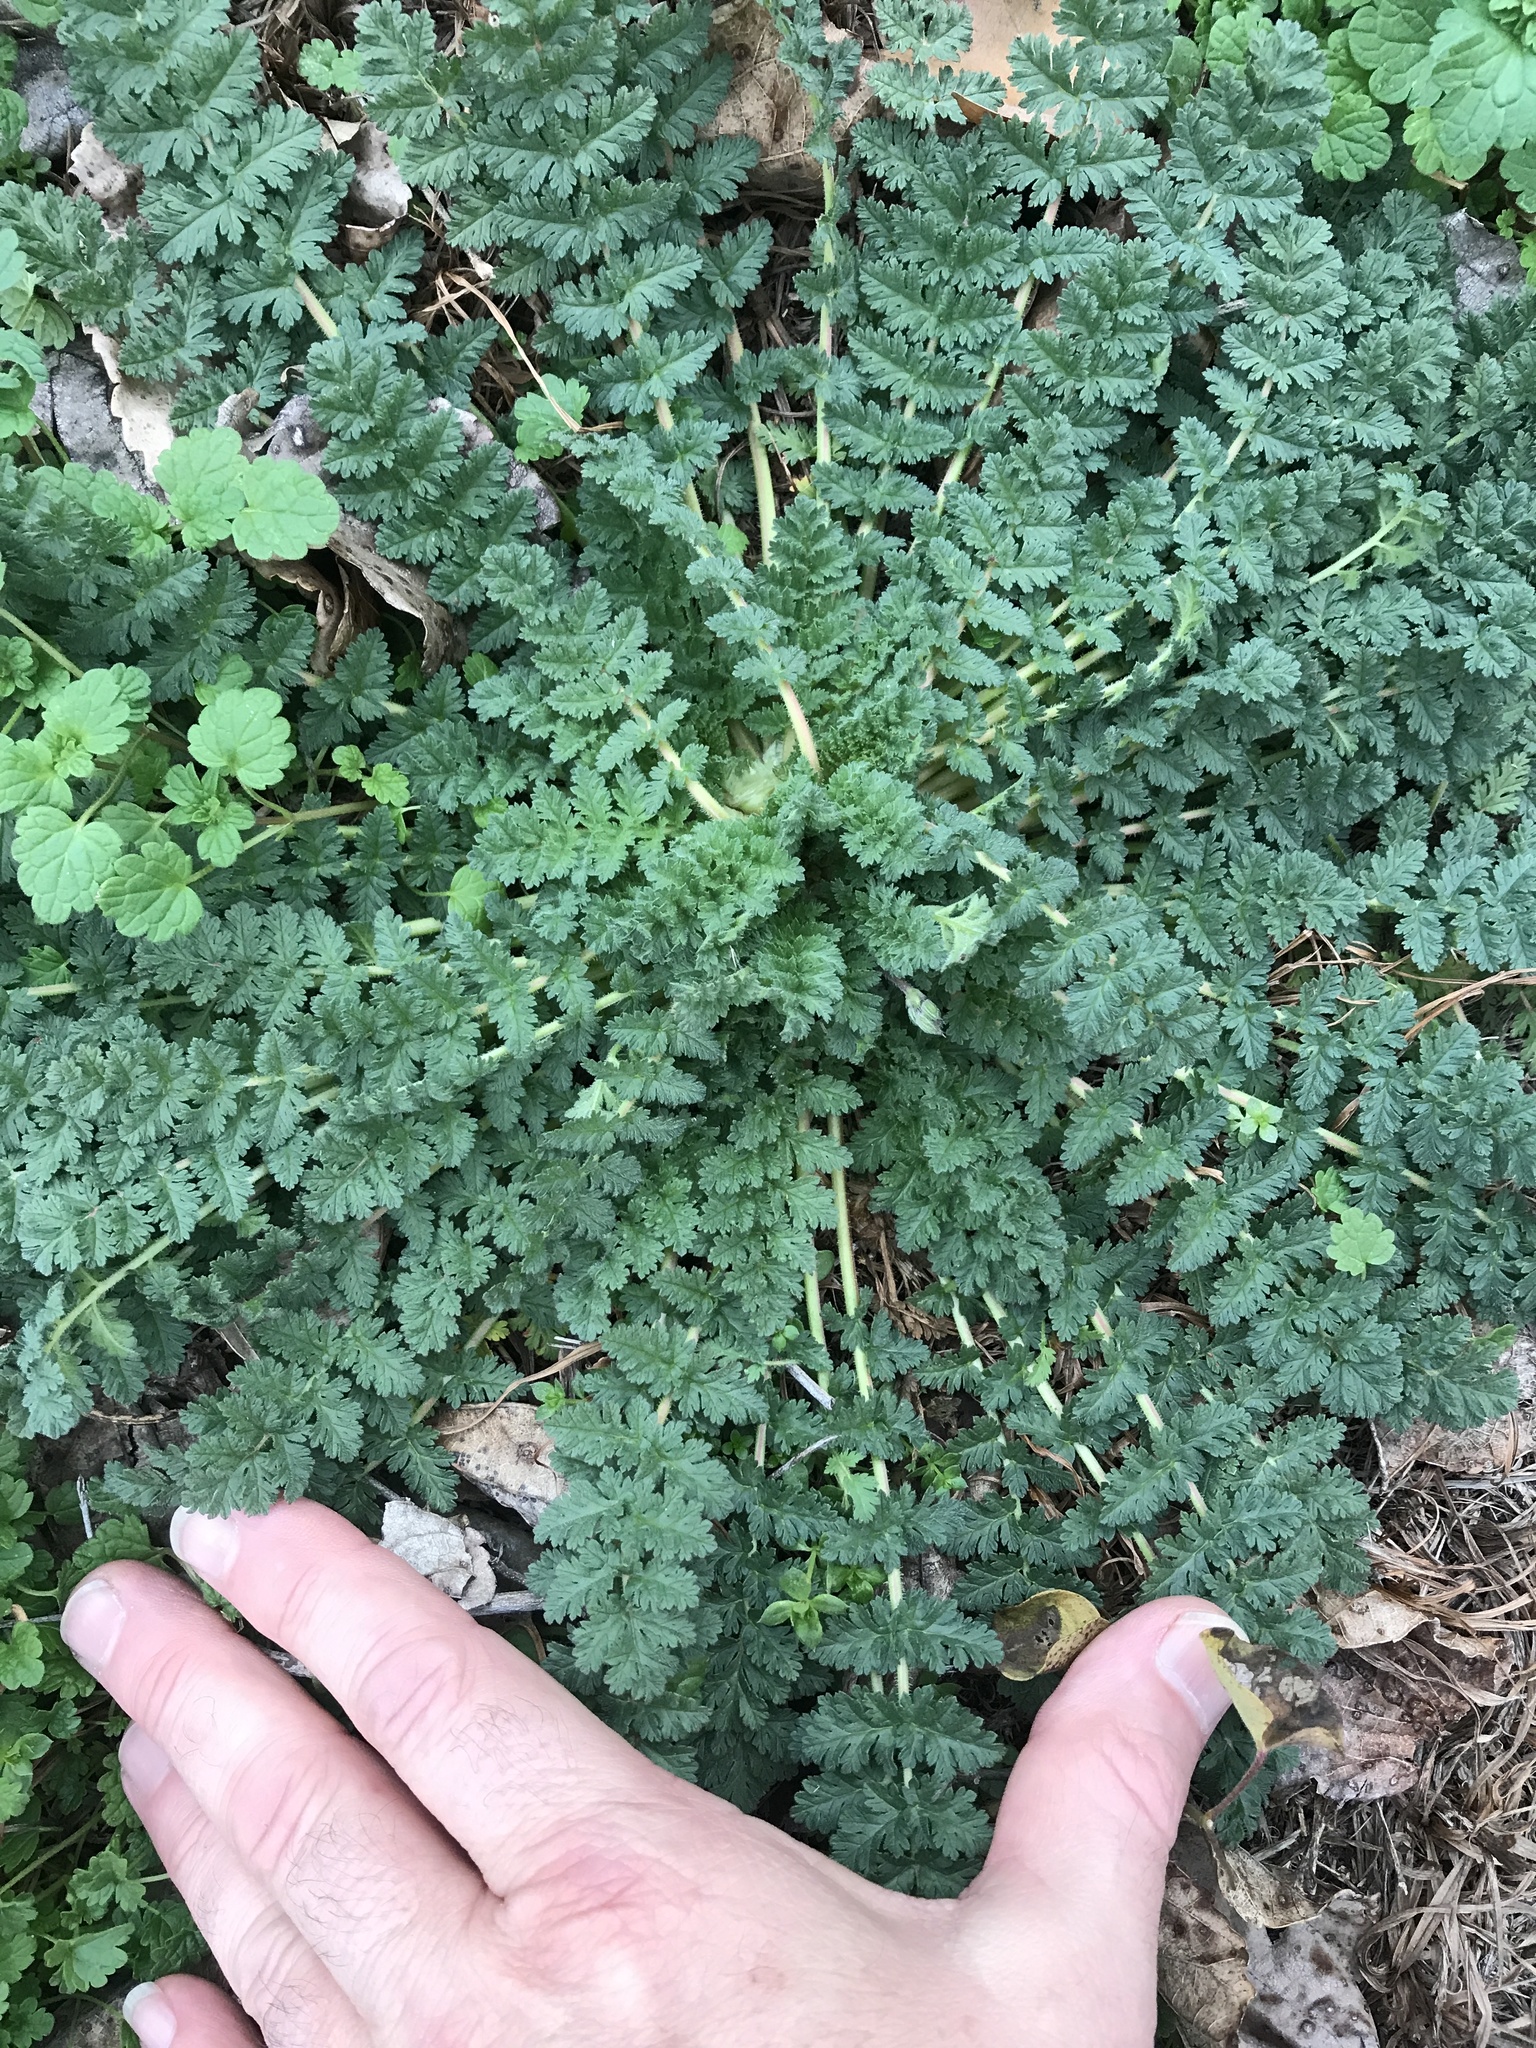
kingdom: Plantae
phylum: Tracheophyta
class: Magnoliopsida
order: Geraniales
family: Geraniaceae
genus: Erodium
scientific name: Erodium cicutarium
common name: Common stork's-bill
